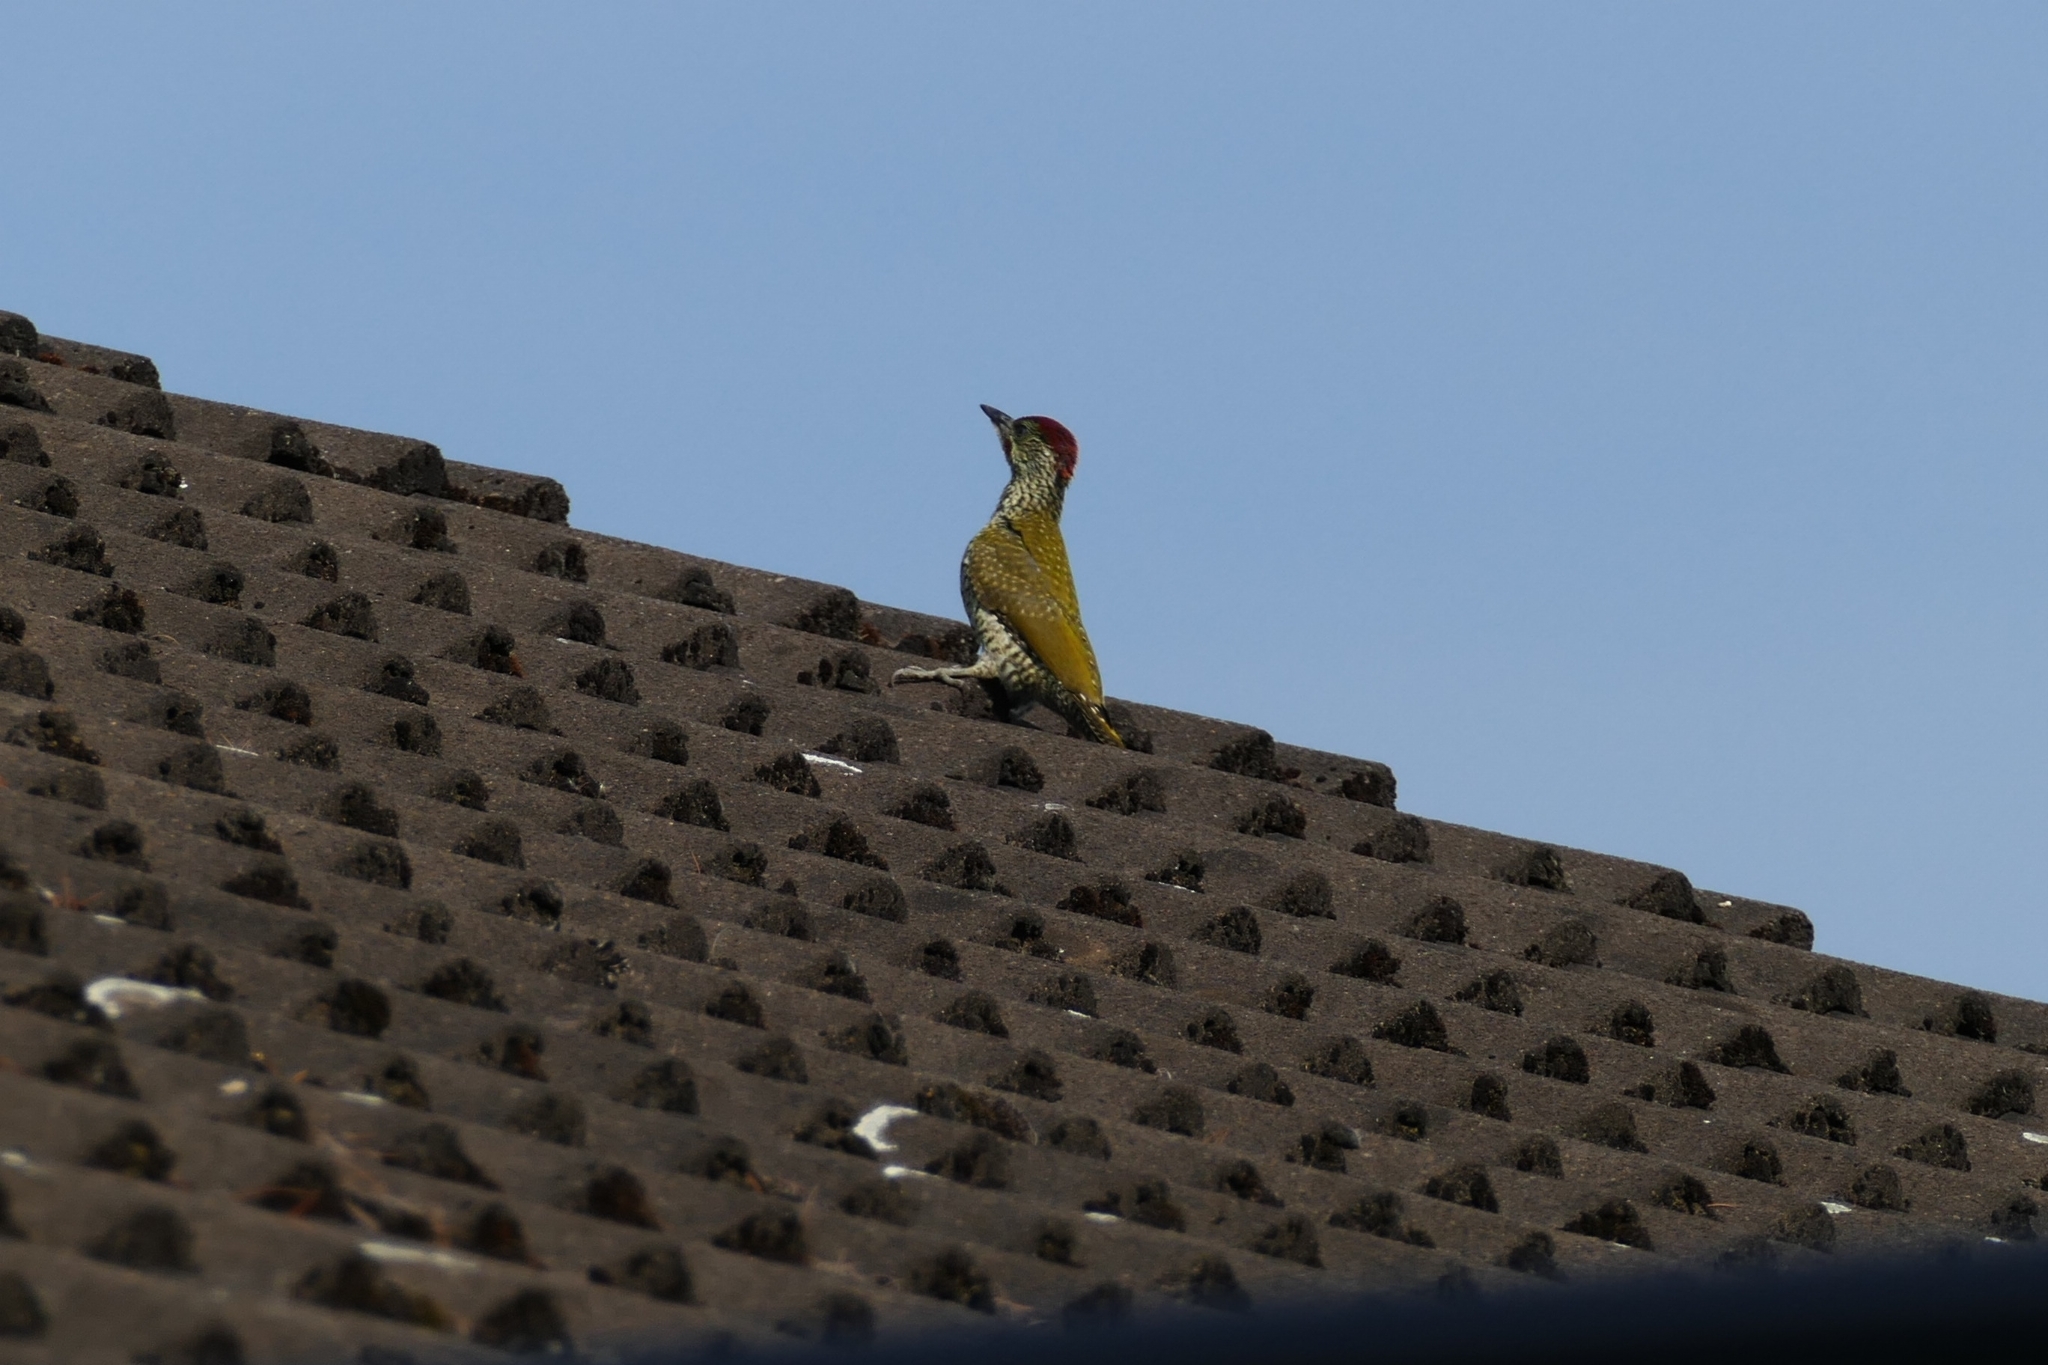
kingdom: Animalia
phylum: Chordata
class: Aves
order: Piciformes
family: Picidae
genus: Picus
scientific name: Picus viridis
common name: European green woodpecker
